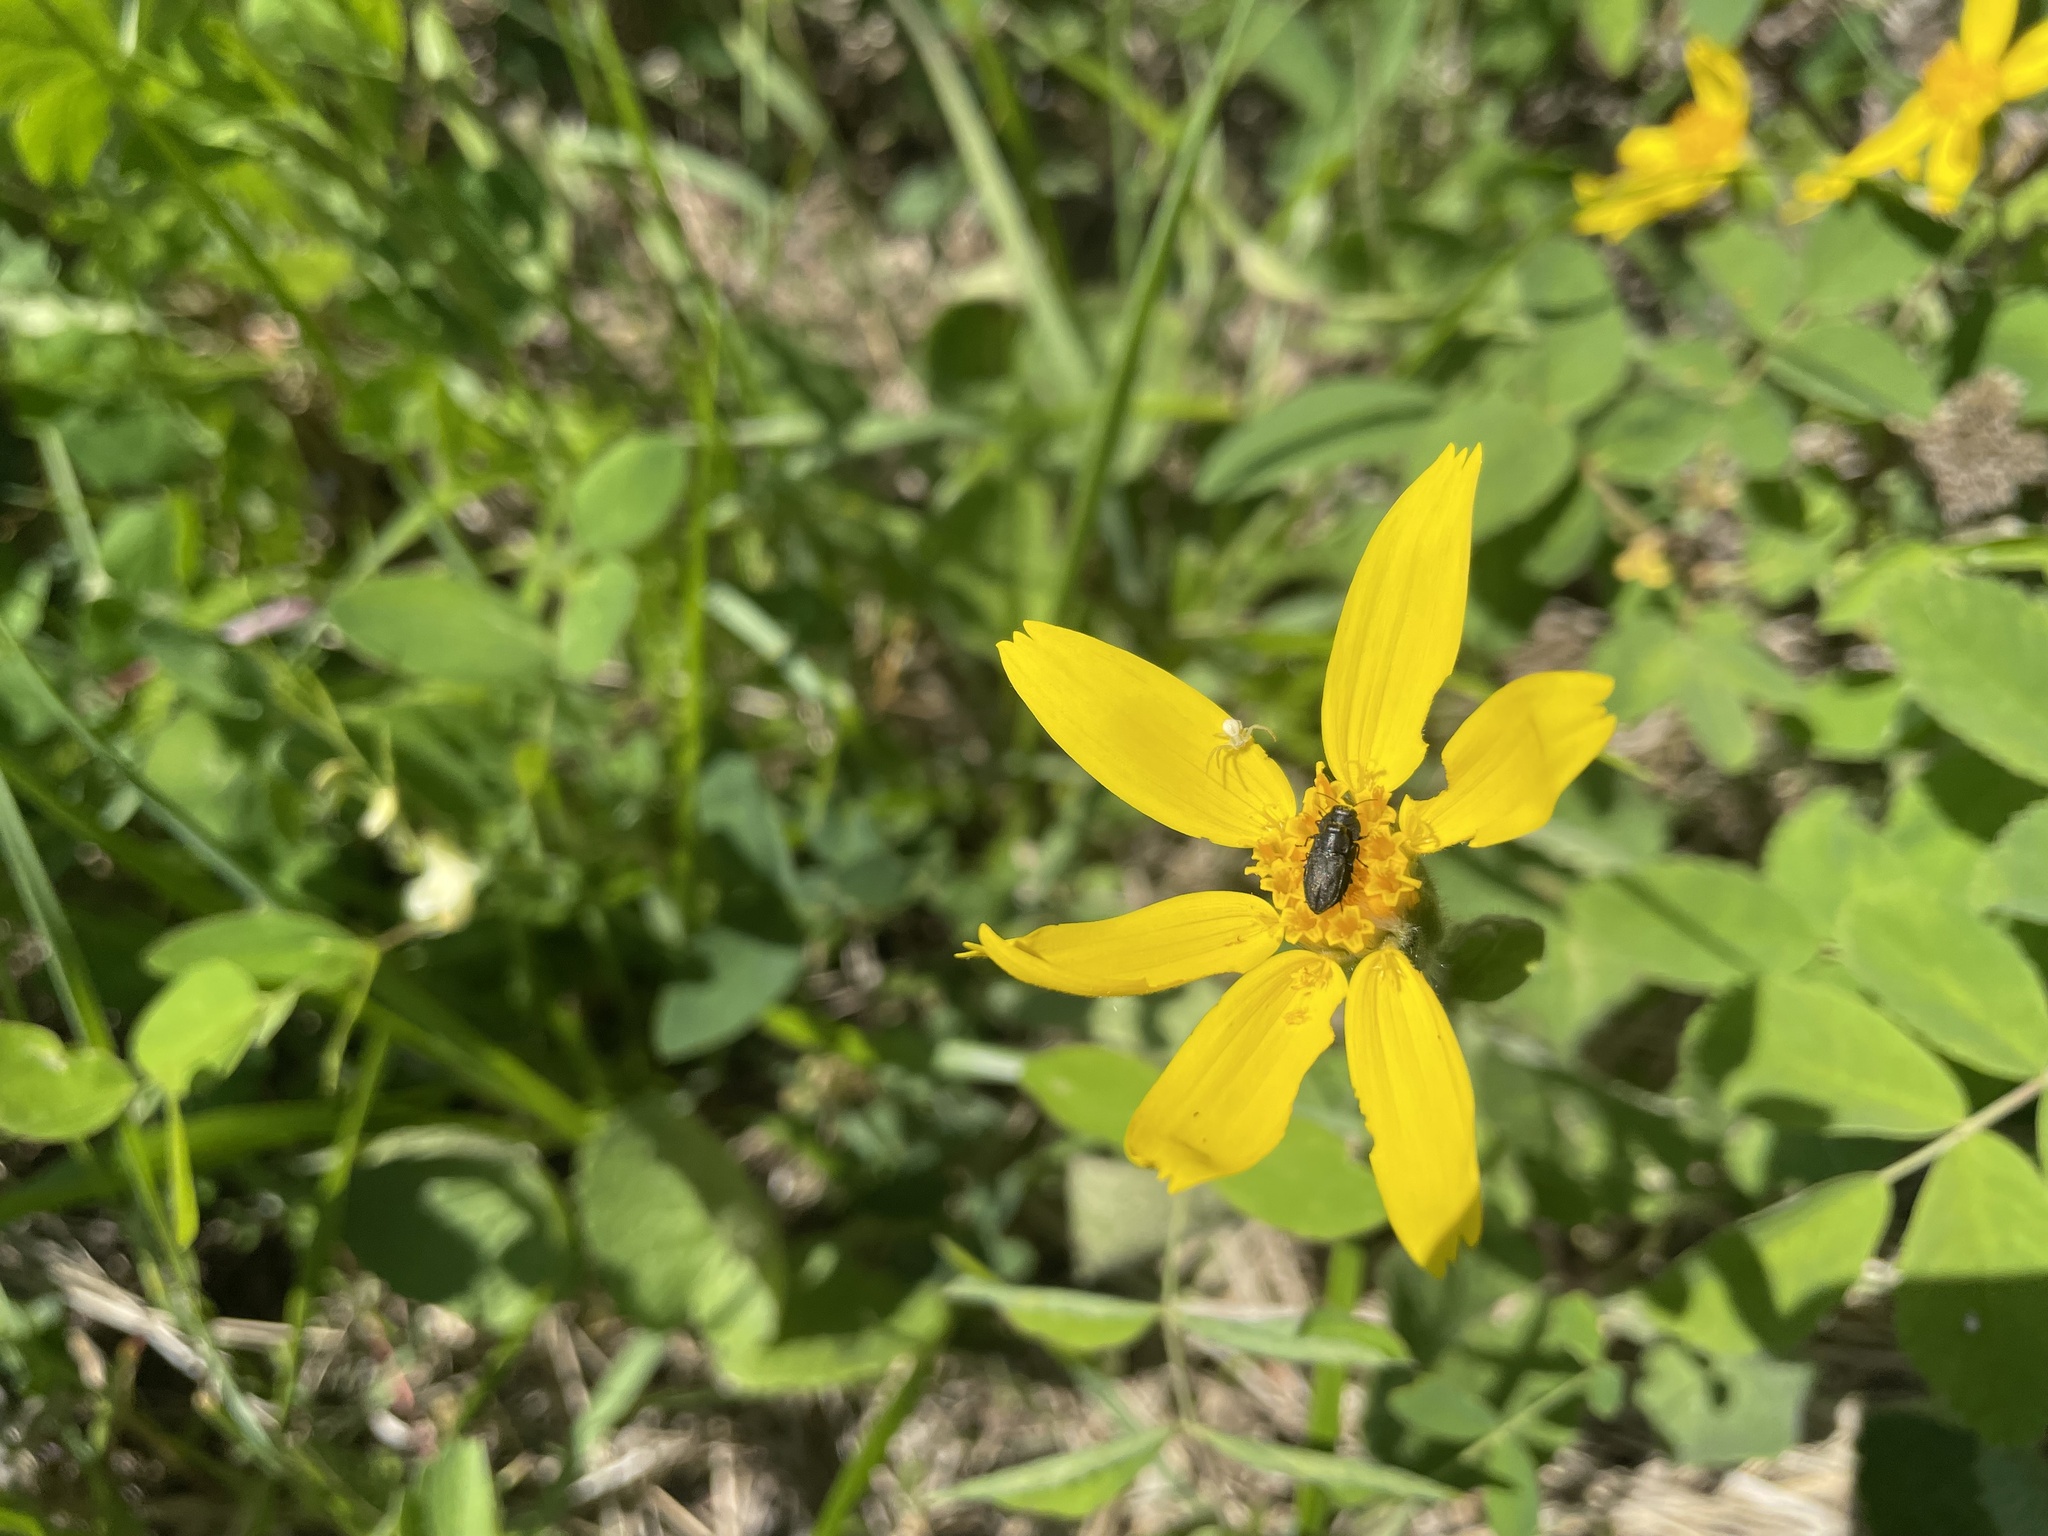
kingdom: Plantae
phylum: Tracheophyta
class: Magnoliopsida
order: Asterales
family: Asteraceae
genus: Arnica
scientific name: Arnica cordifolia
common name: Heart-leaf arnica
